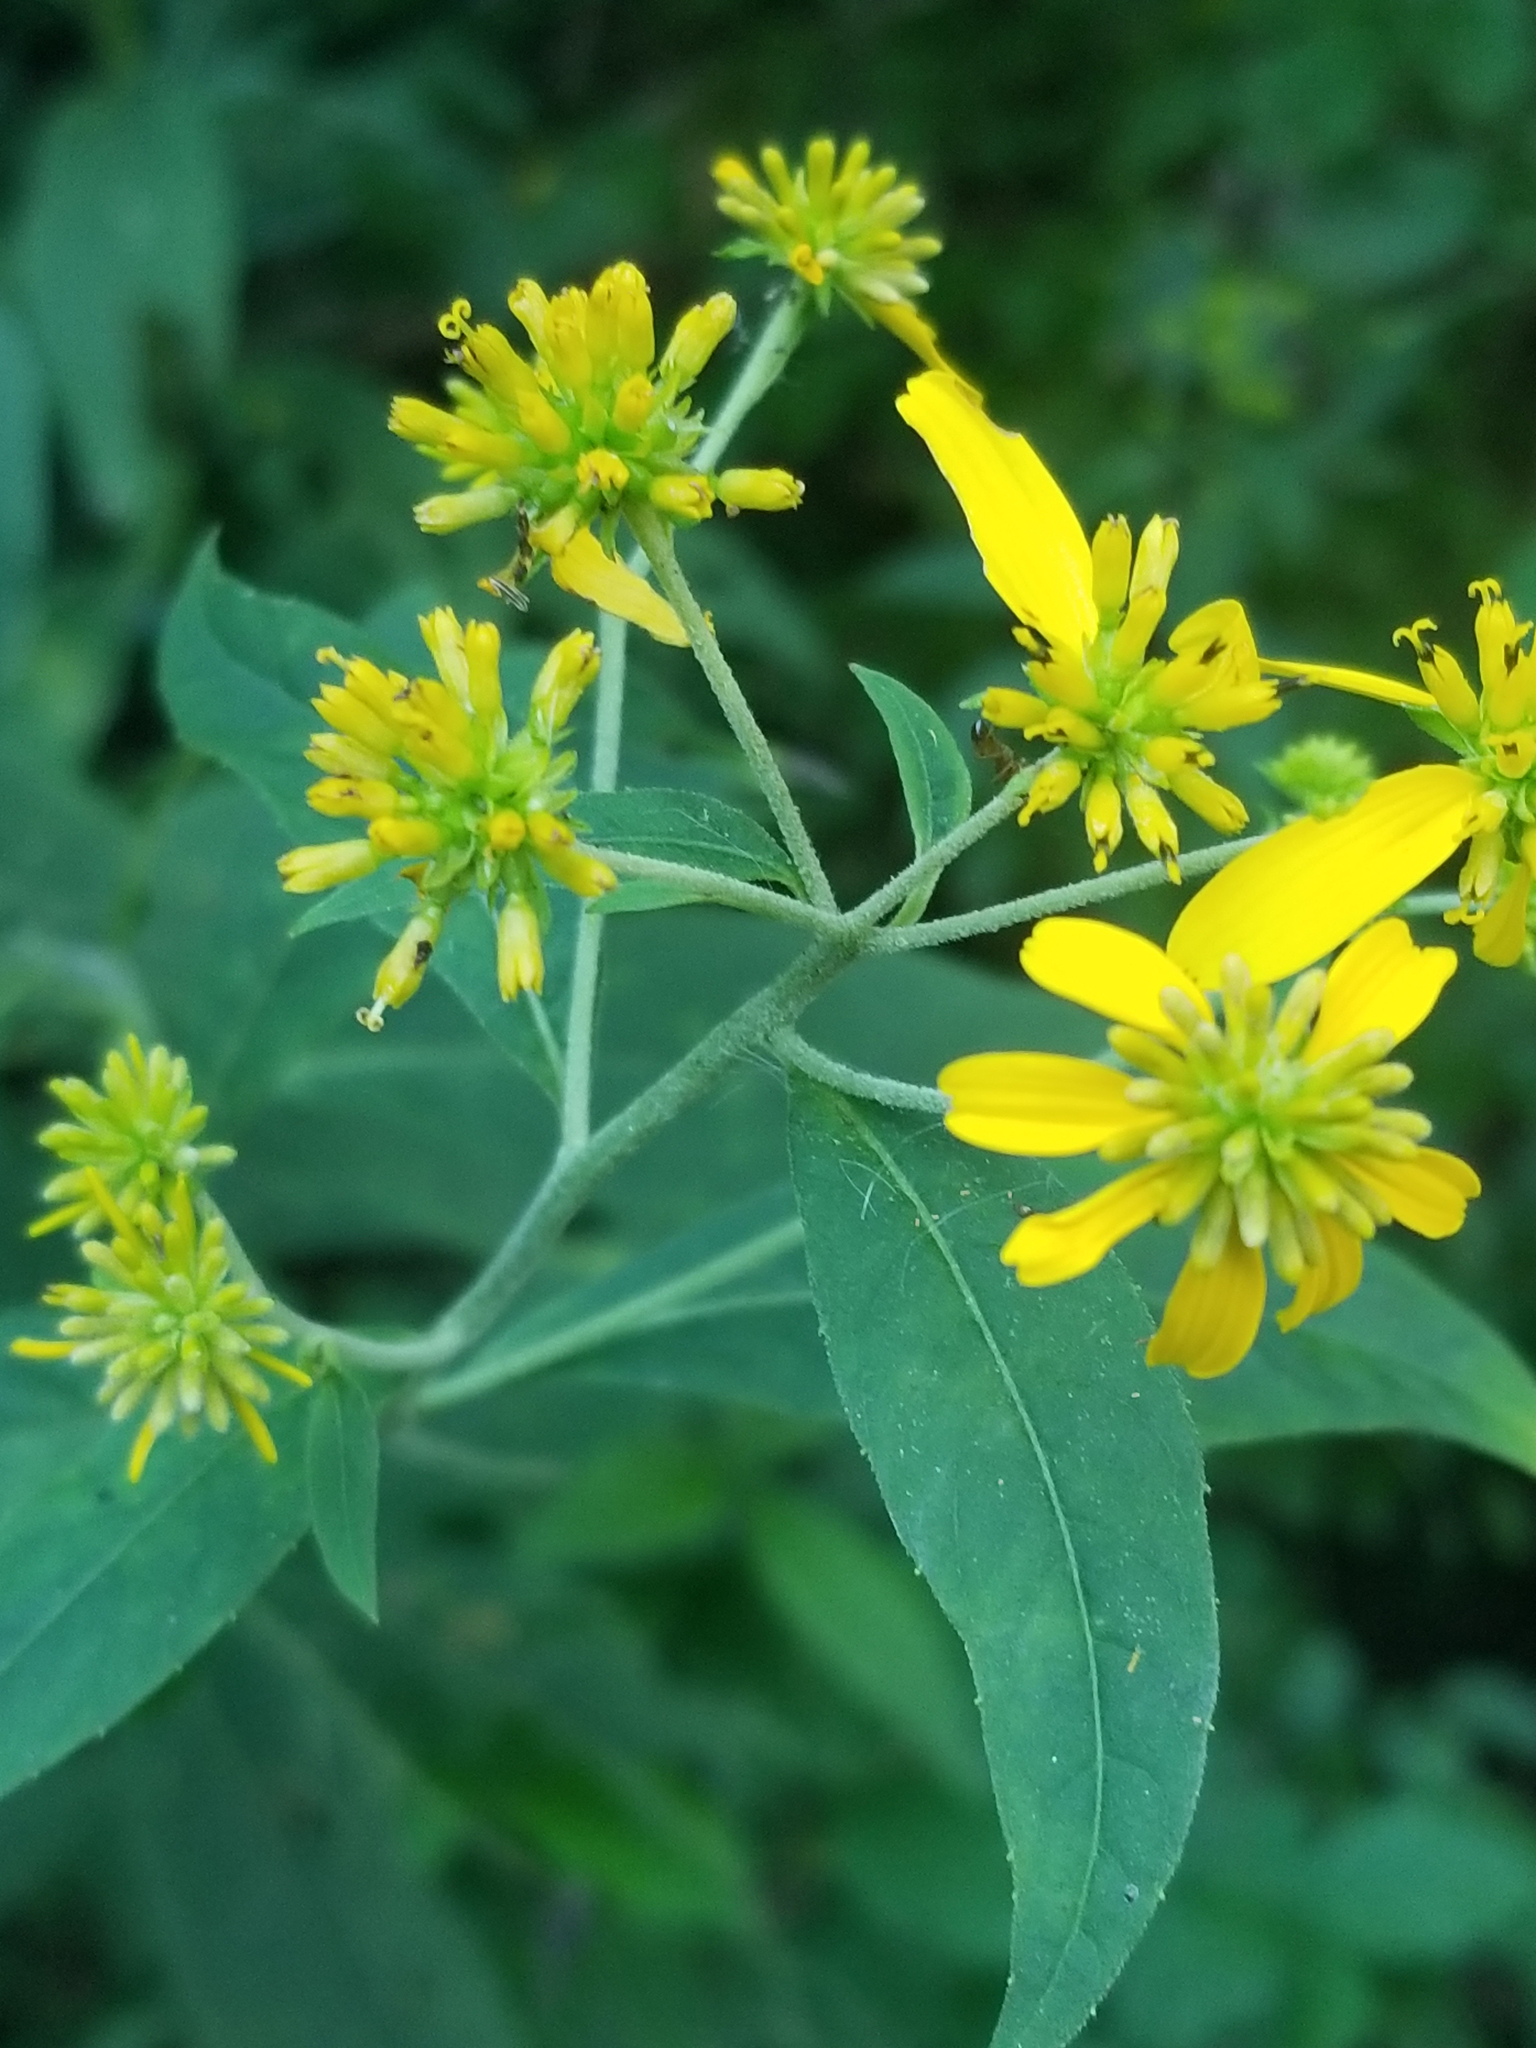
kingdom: Plantae
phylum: Tracheophyta
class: Magnoliopsida
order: Asterales
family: Asteraceae
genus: Verbesina
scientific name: Verbesina alternifolia
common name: Wingstem
